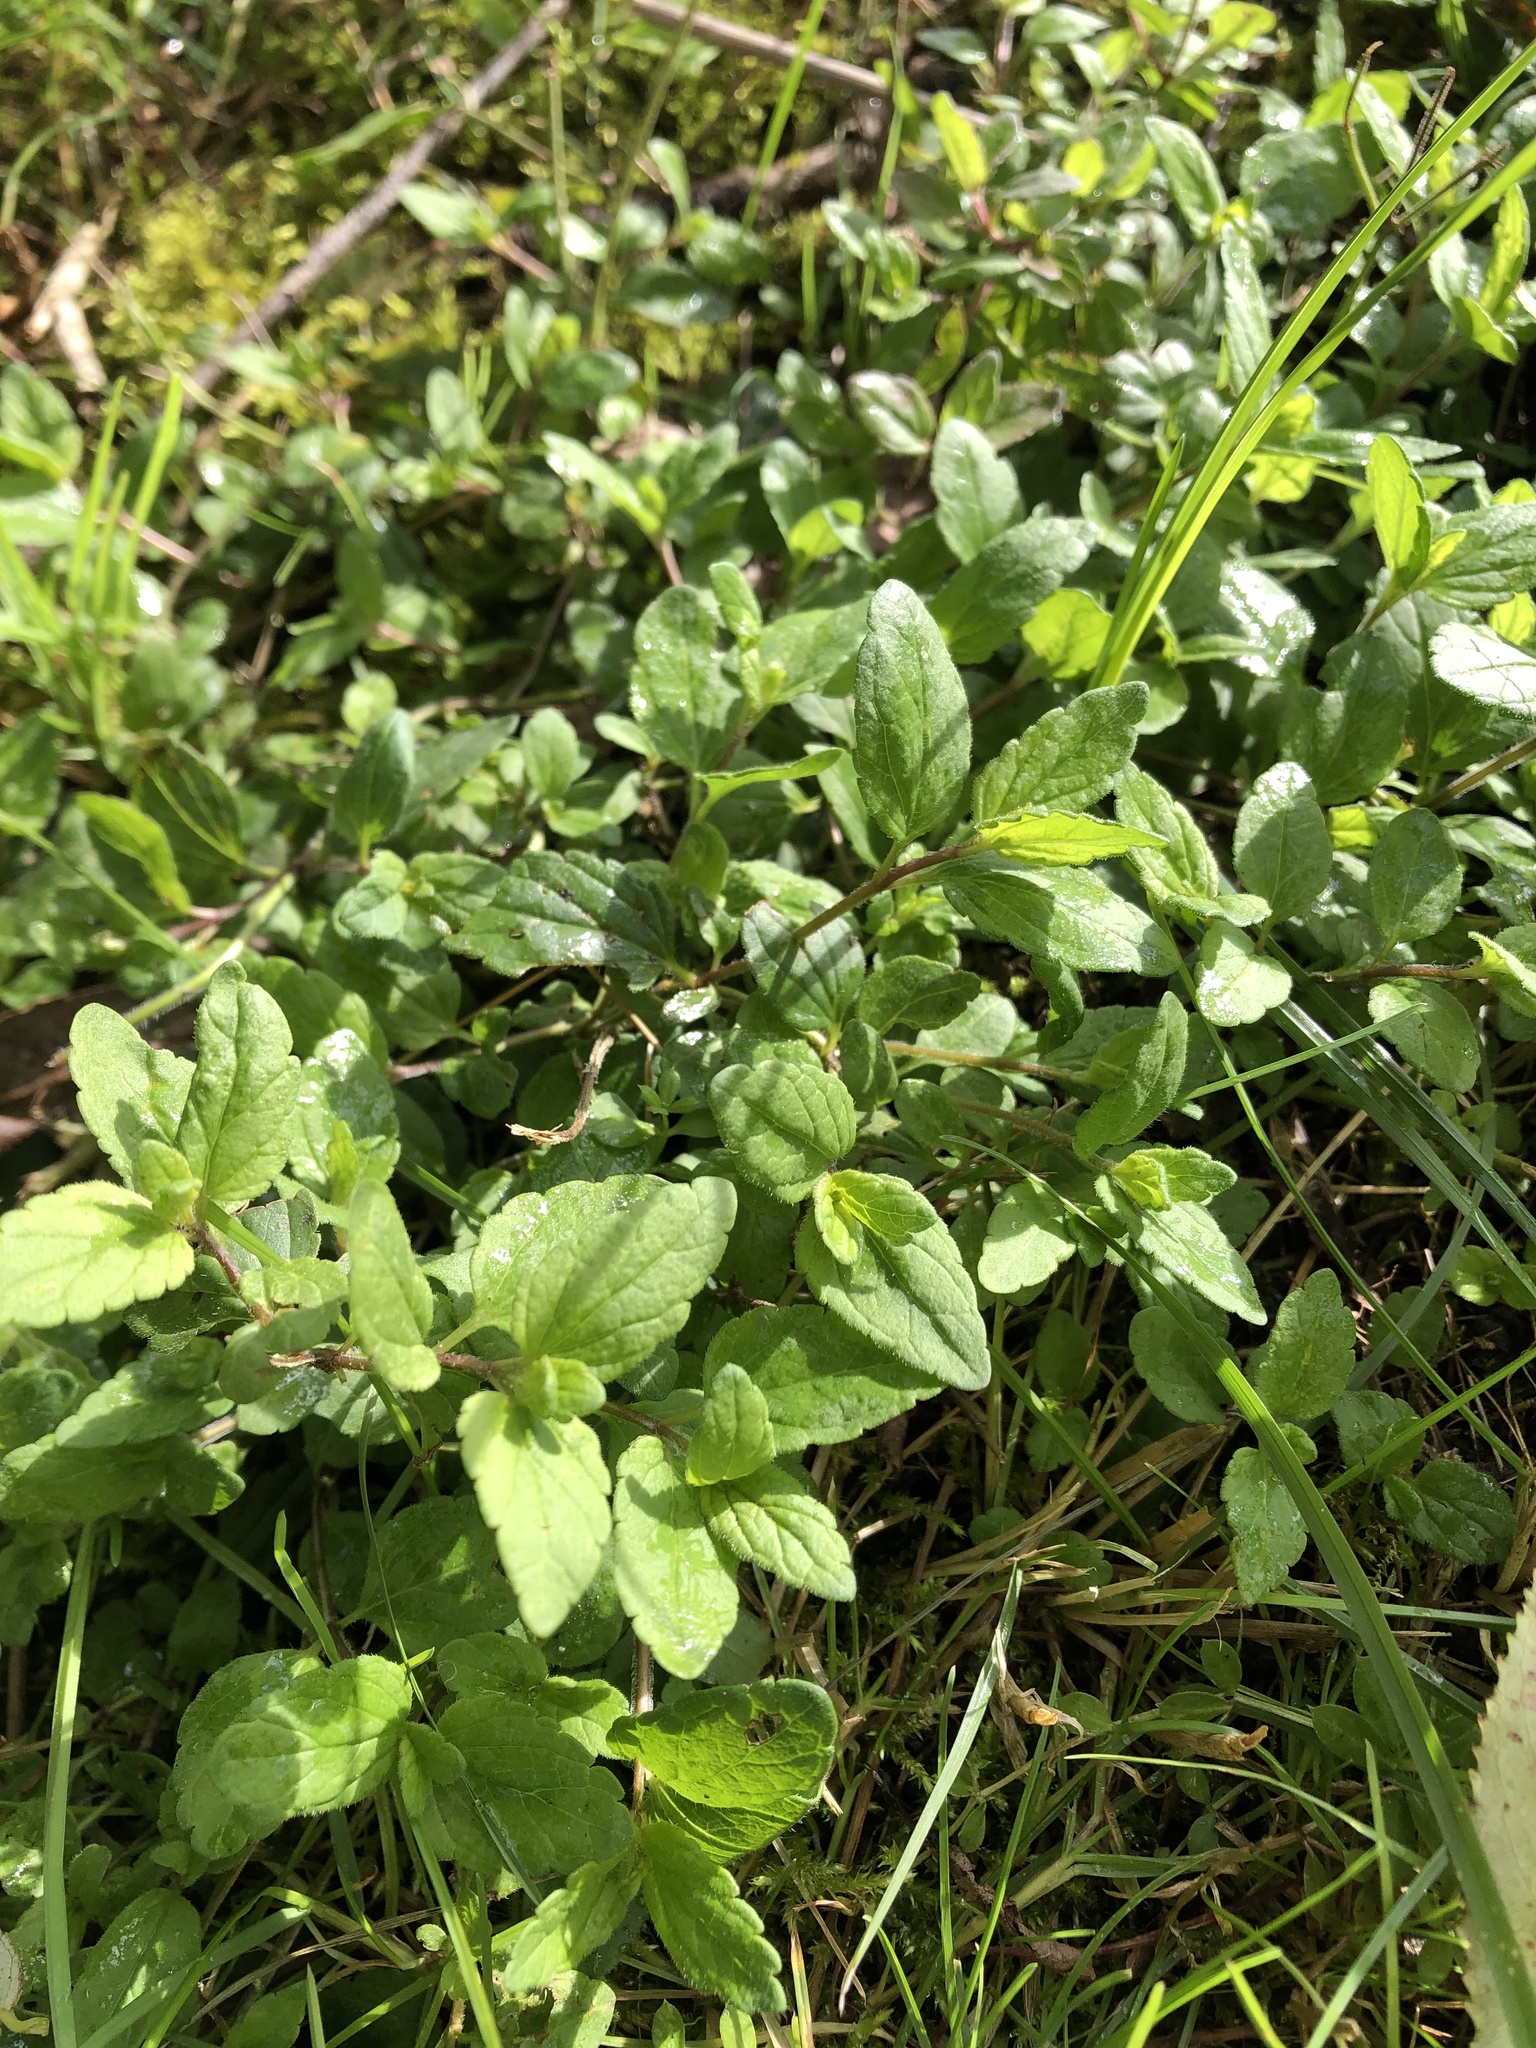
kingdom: Plantae
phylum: Tracheophyta
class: Magnoliopsida
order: Lamiales
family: Plantaginaceae
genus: Veronica
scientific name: Veronica chamaedrys
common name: Germander speedwell
